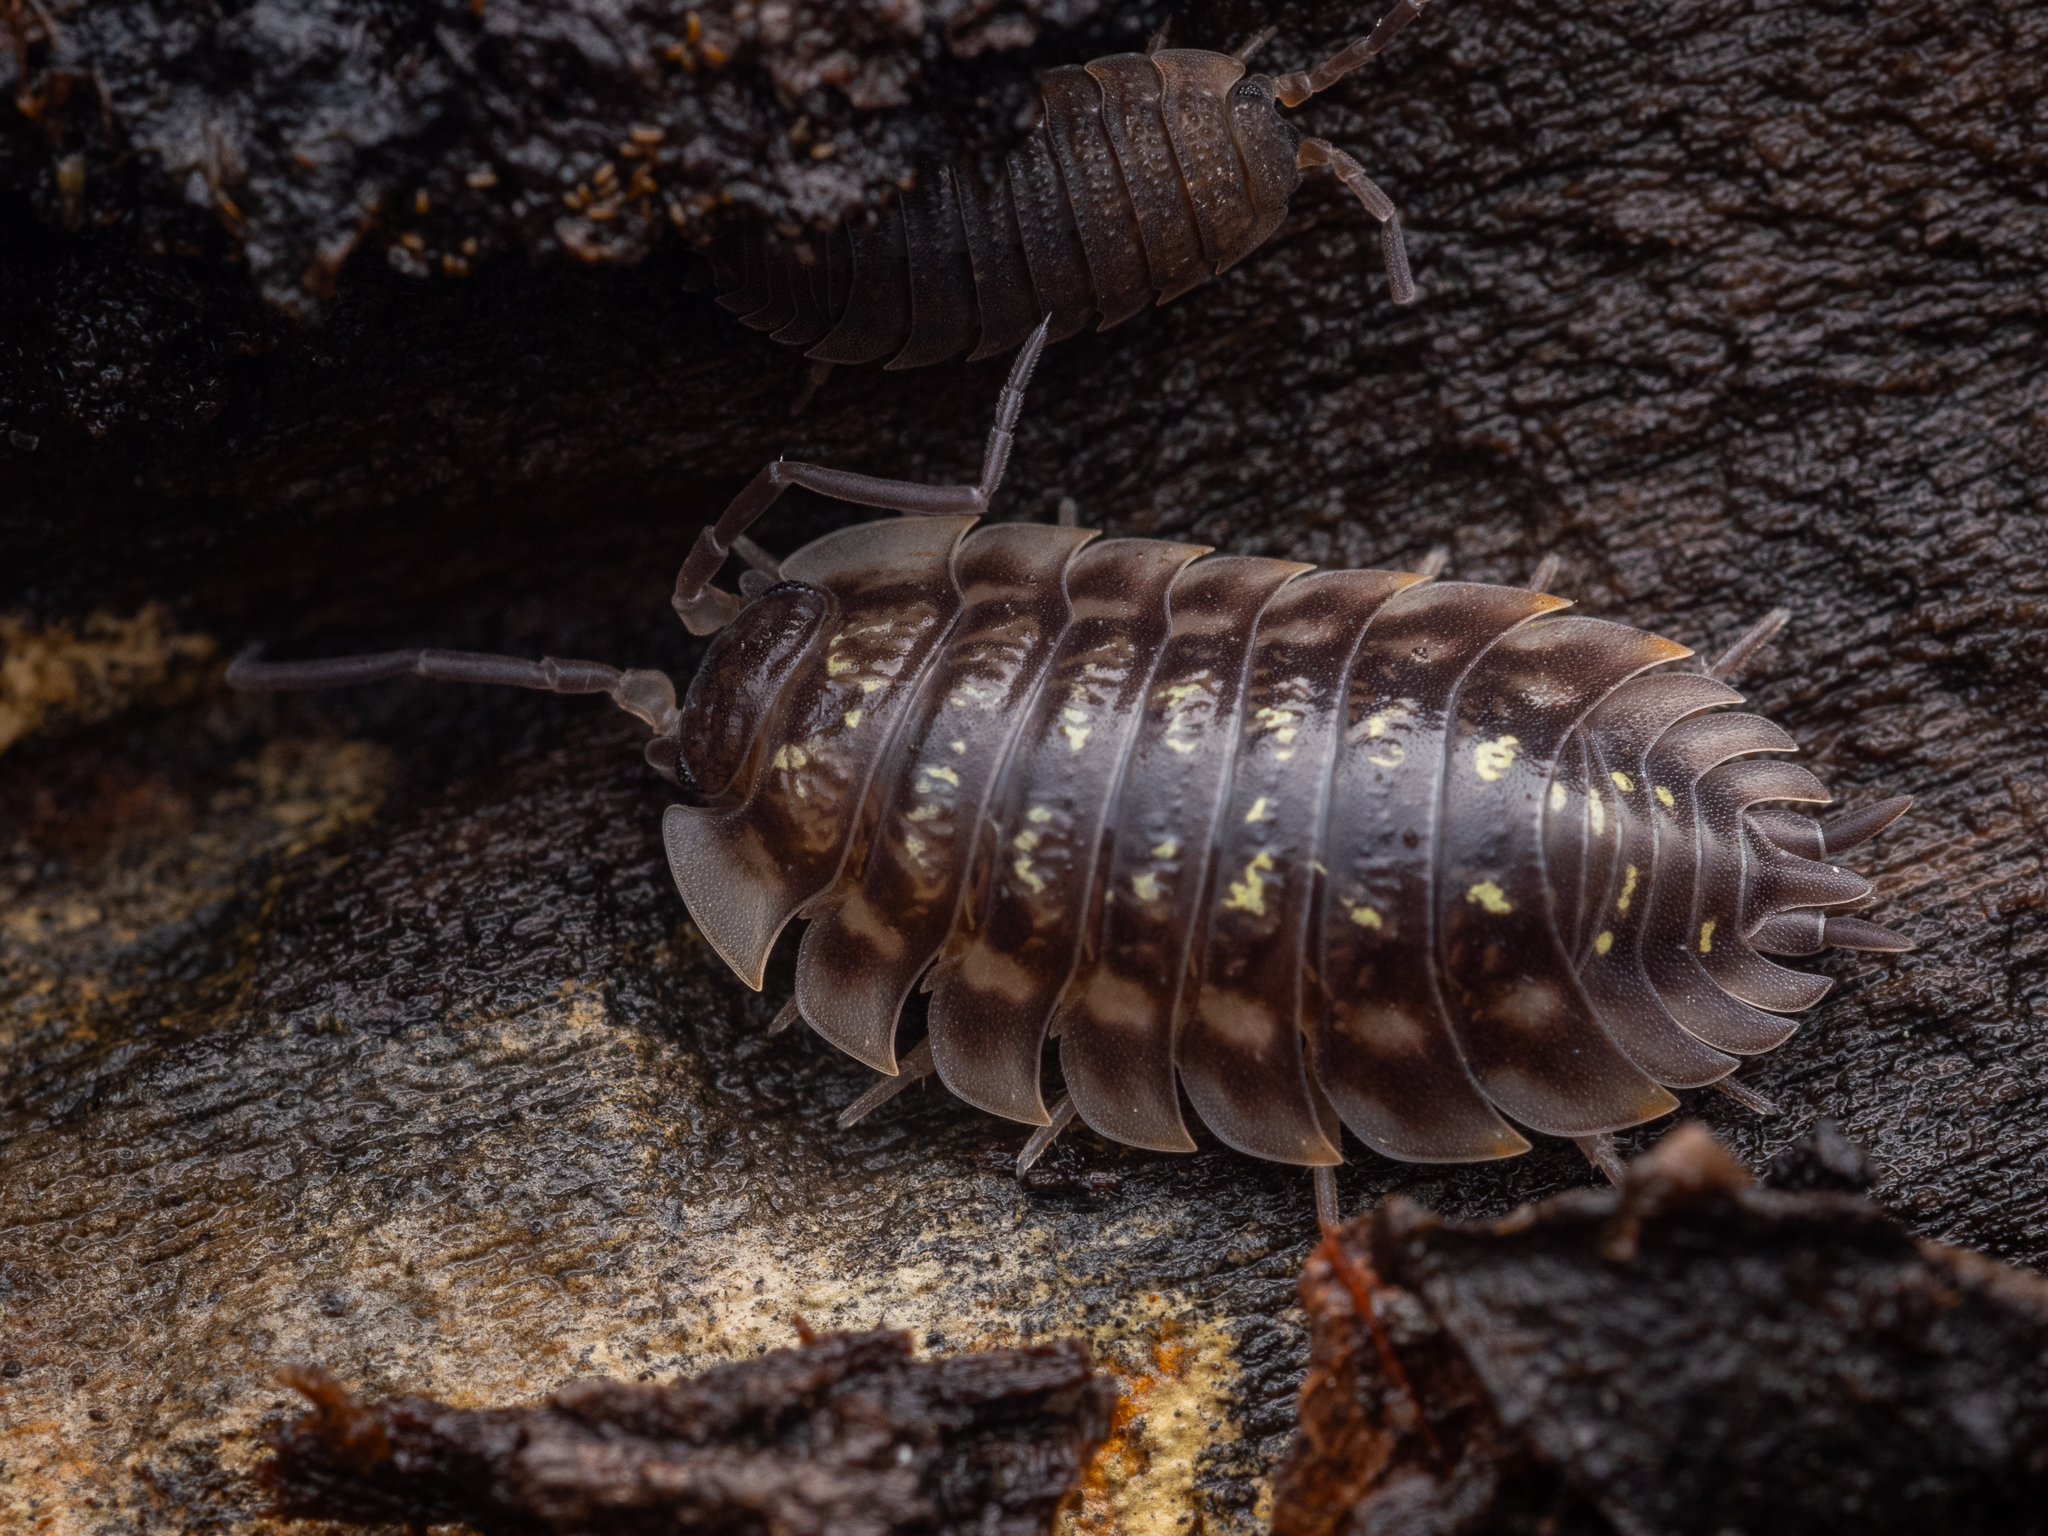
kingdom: Animalia
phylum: Arthropoda
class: Malacostraca
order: Isopoda
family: Oniscidae
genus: Oniscus
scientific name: Oniscus asellus
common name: Common shiny woodlouse
